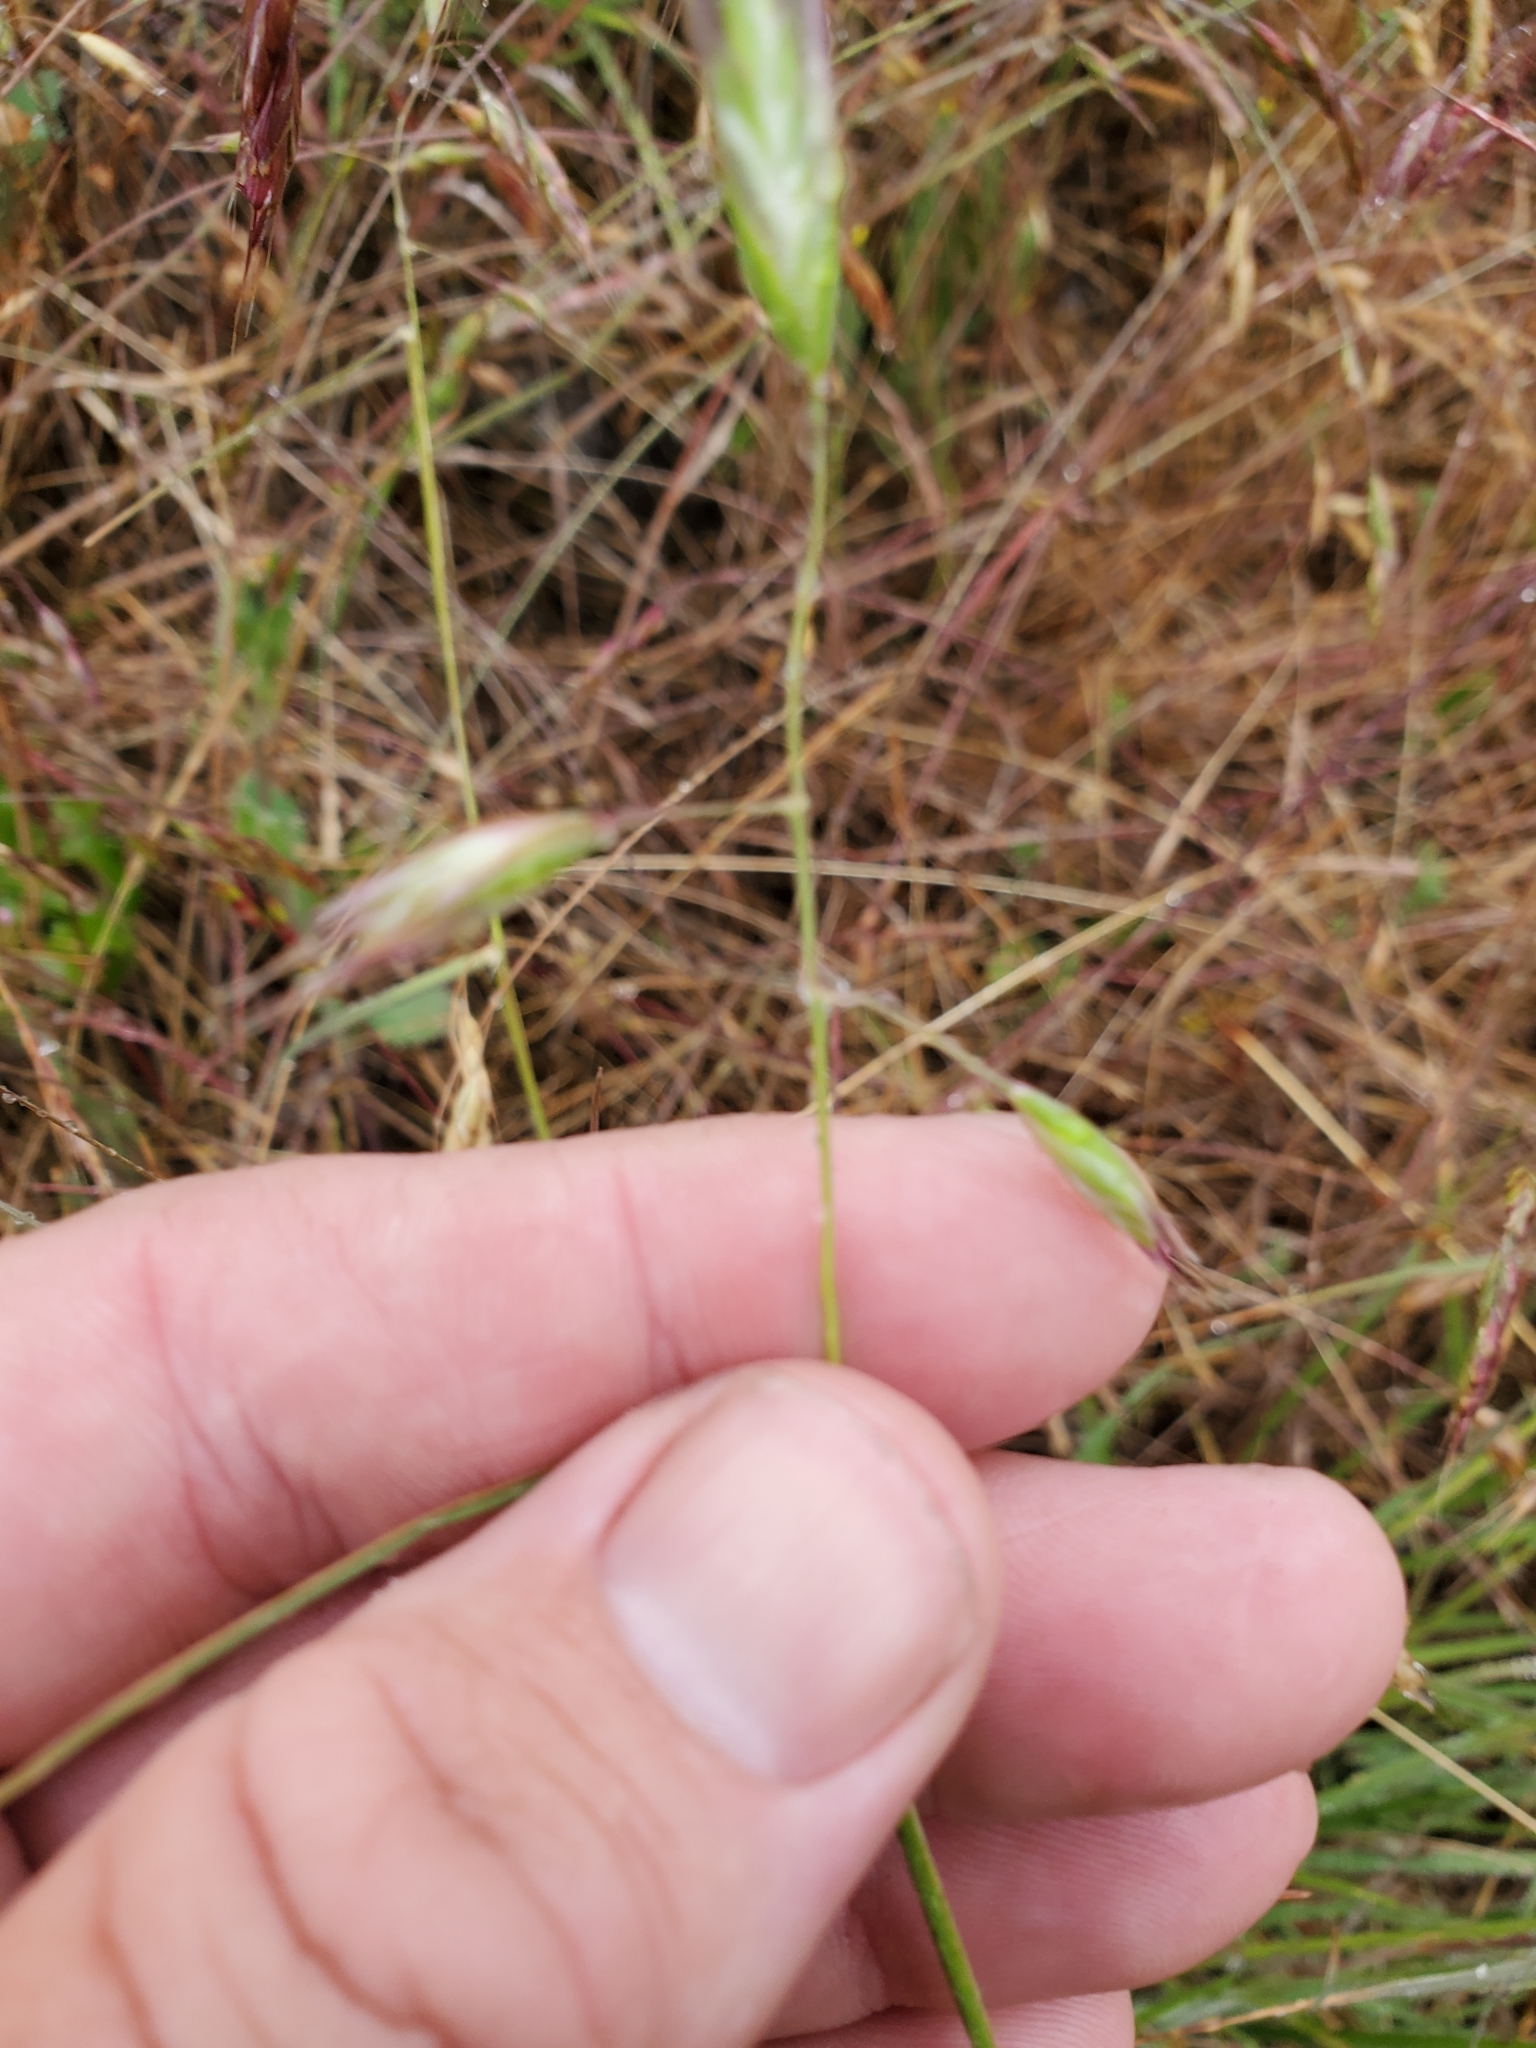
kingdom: Plantae
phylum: Tracheophyta
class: Liliopsida
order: Poales
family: Poaceae
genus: Danthonia
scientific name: Danthonia californica
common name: California oat grass
